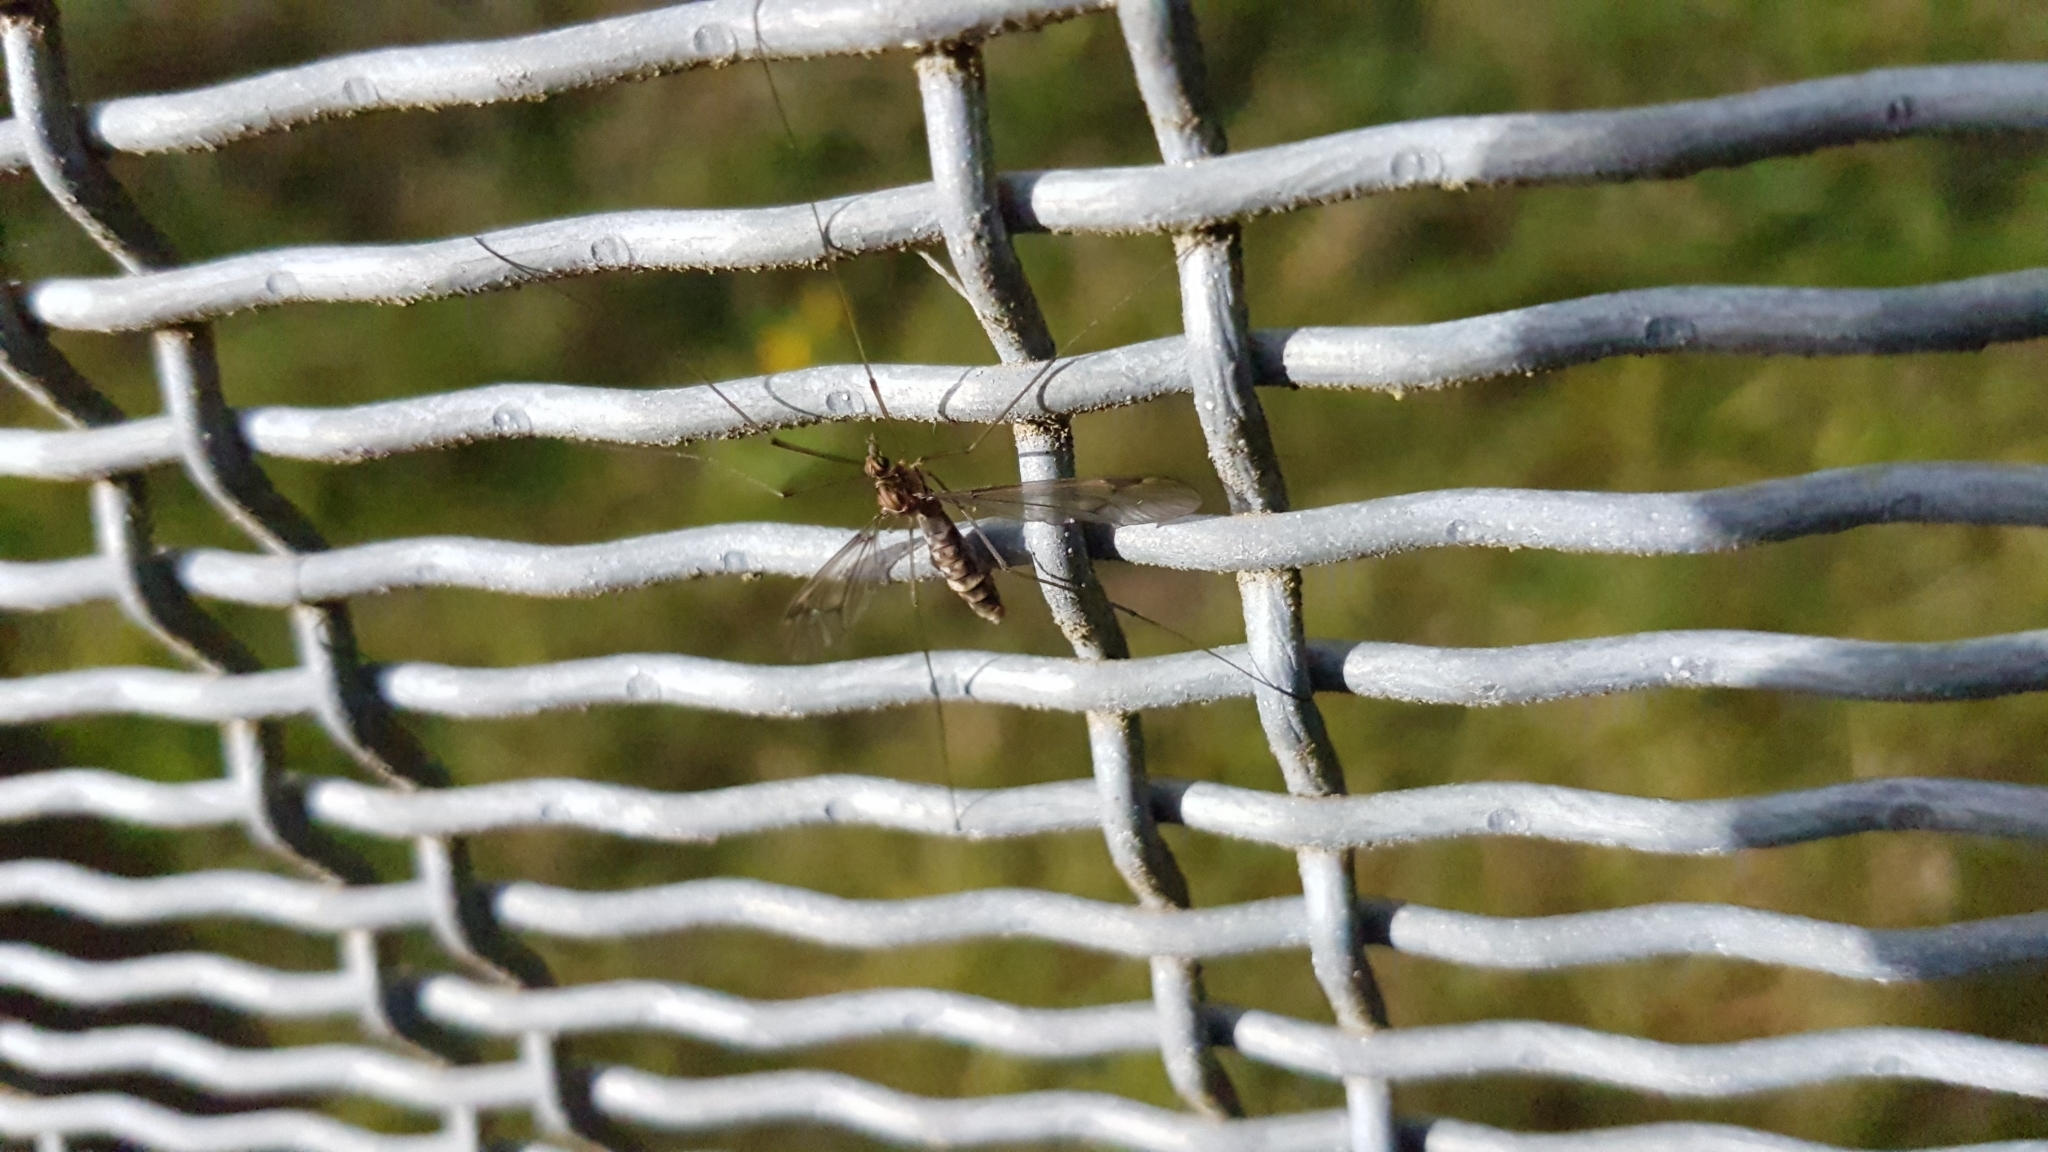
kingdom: Animalia
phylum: Arthropoda
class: Insecta
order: Diptera
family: Tipulidae
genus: Leptotarsus
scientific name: Leptotarsus cubitalis
